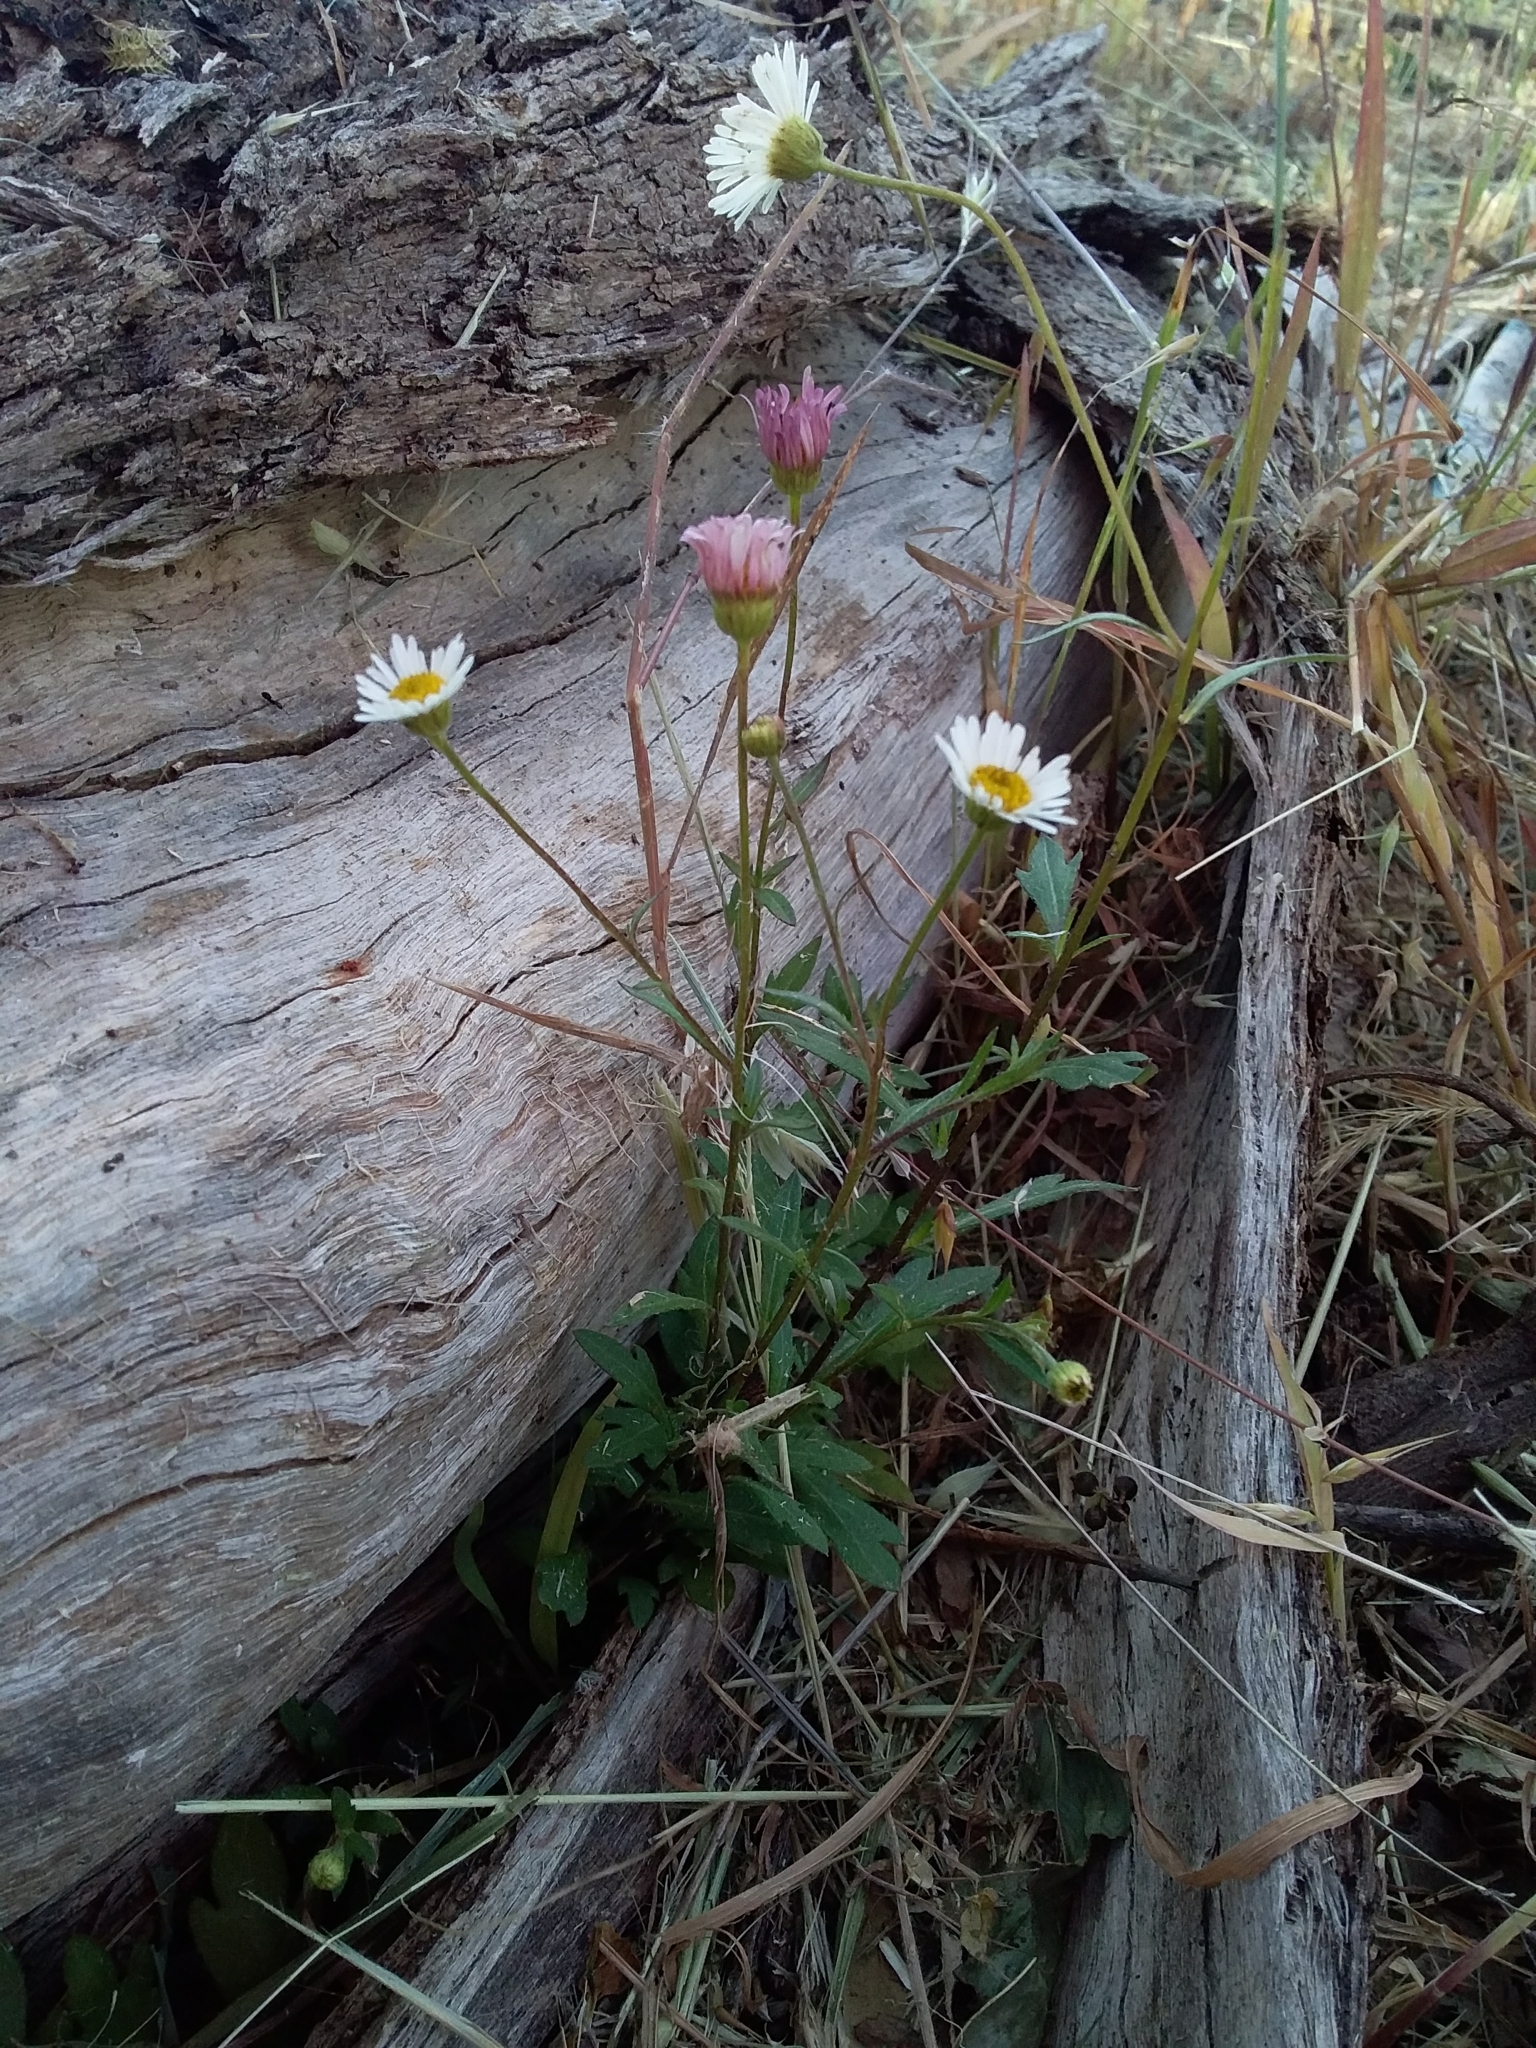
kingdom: Plantae
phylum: Tracheophyta
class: Magnoliopsida
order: Asterales
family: Asteraceae
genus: Erigeron
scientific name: Erigeron karvinskianus
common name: Mexican fleabane
